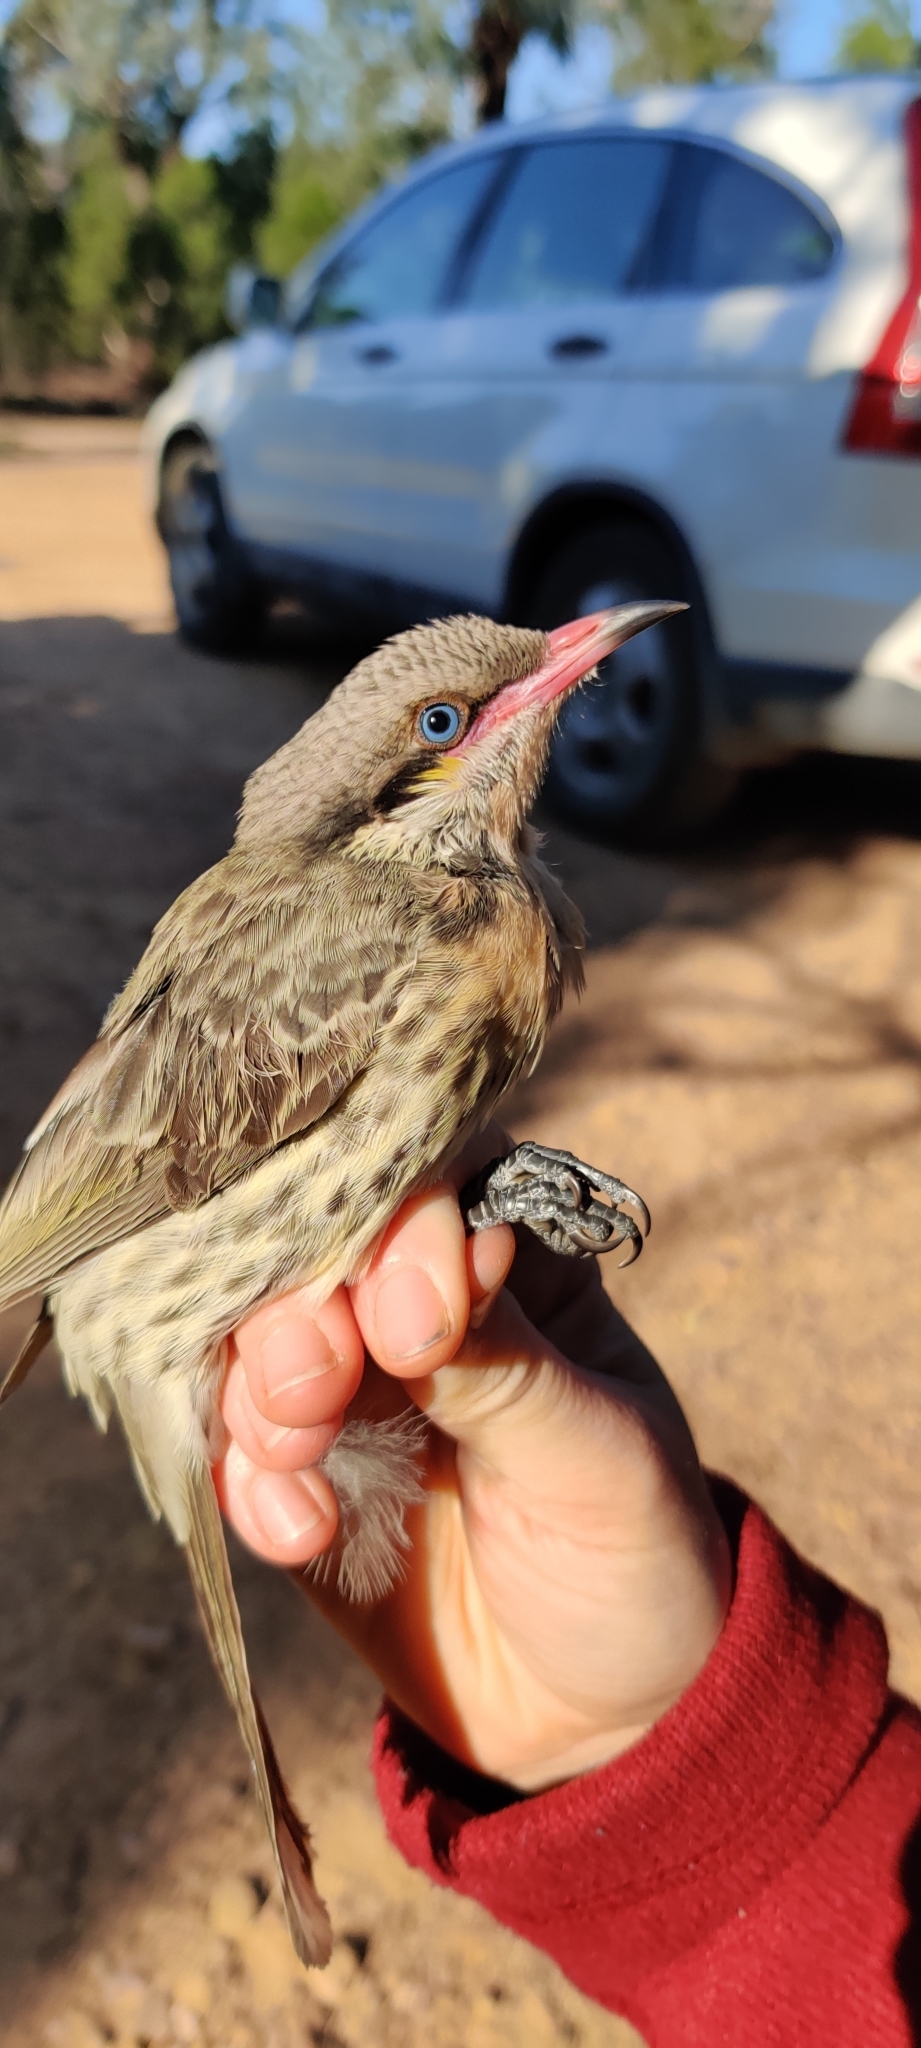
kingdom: Animalia
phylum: Chordata
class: Aves
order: Passeriformes
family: Meliphagidae
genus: Acanthagenys
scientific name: Acanthagenys rufogularis
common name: Spiny-cheeked honeyeater
